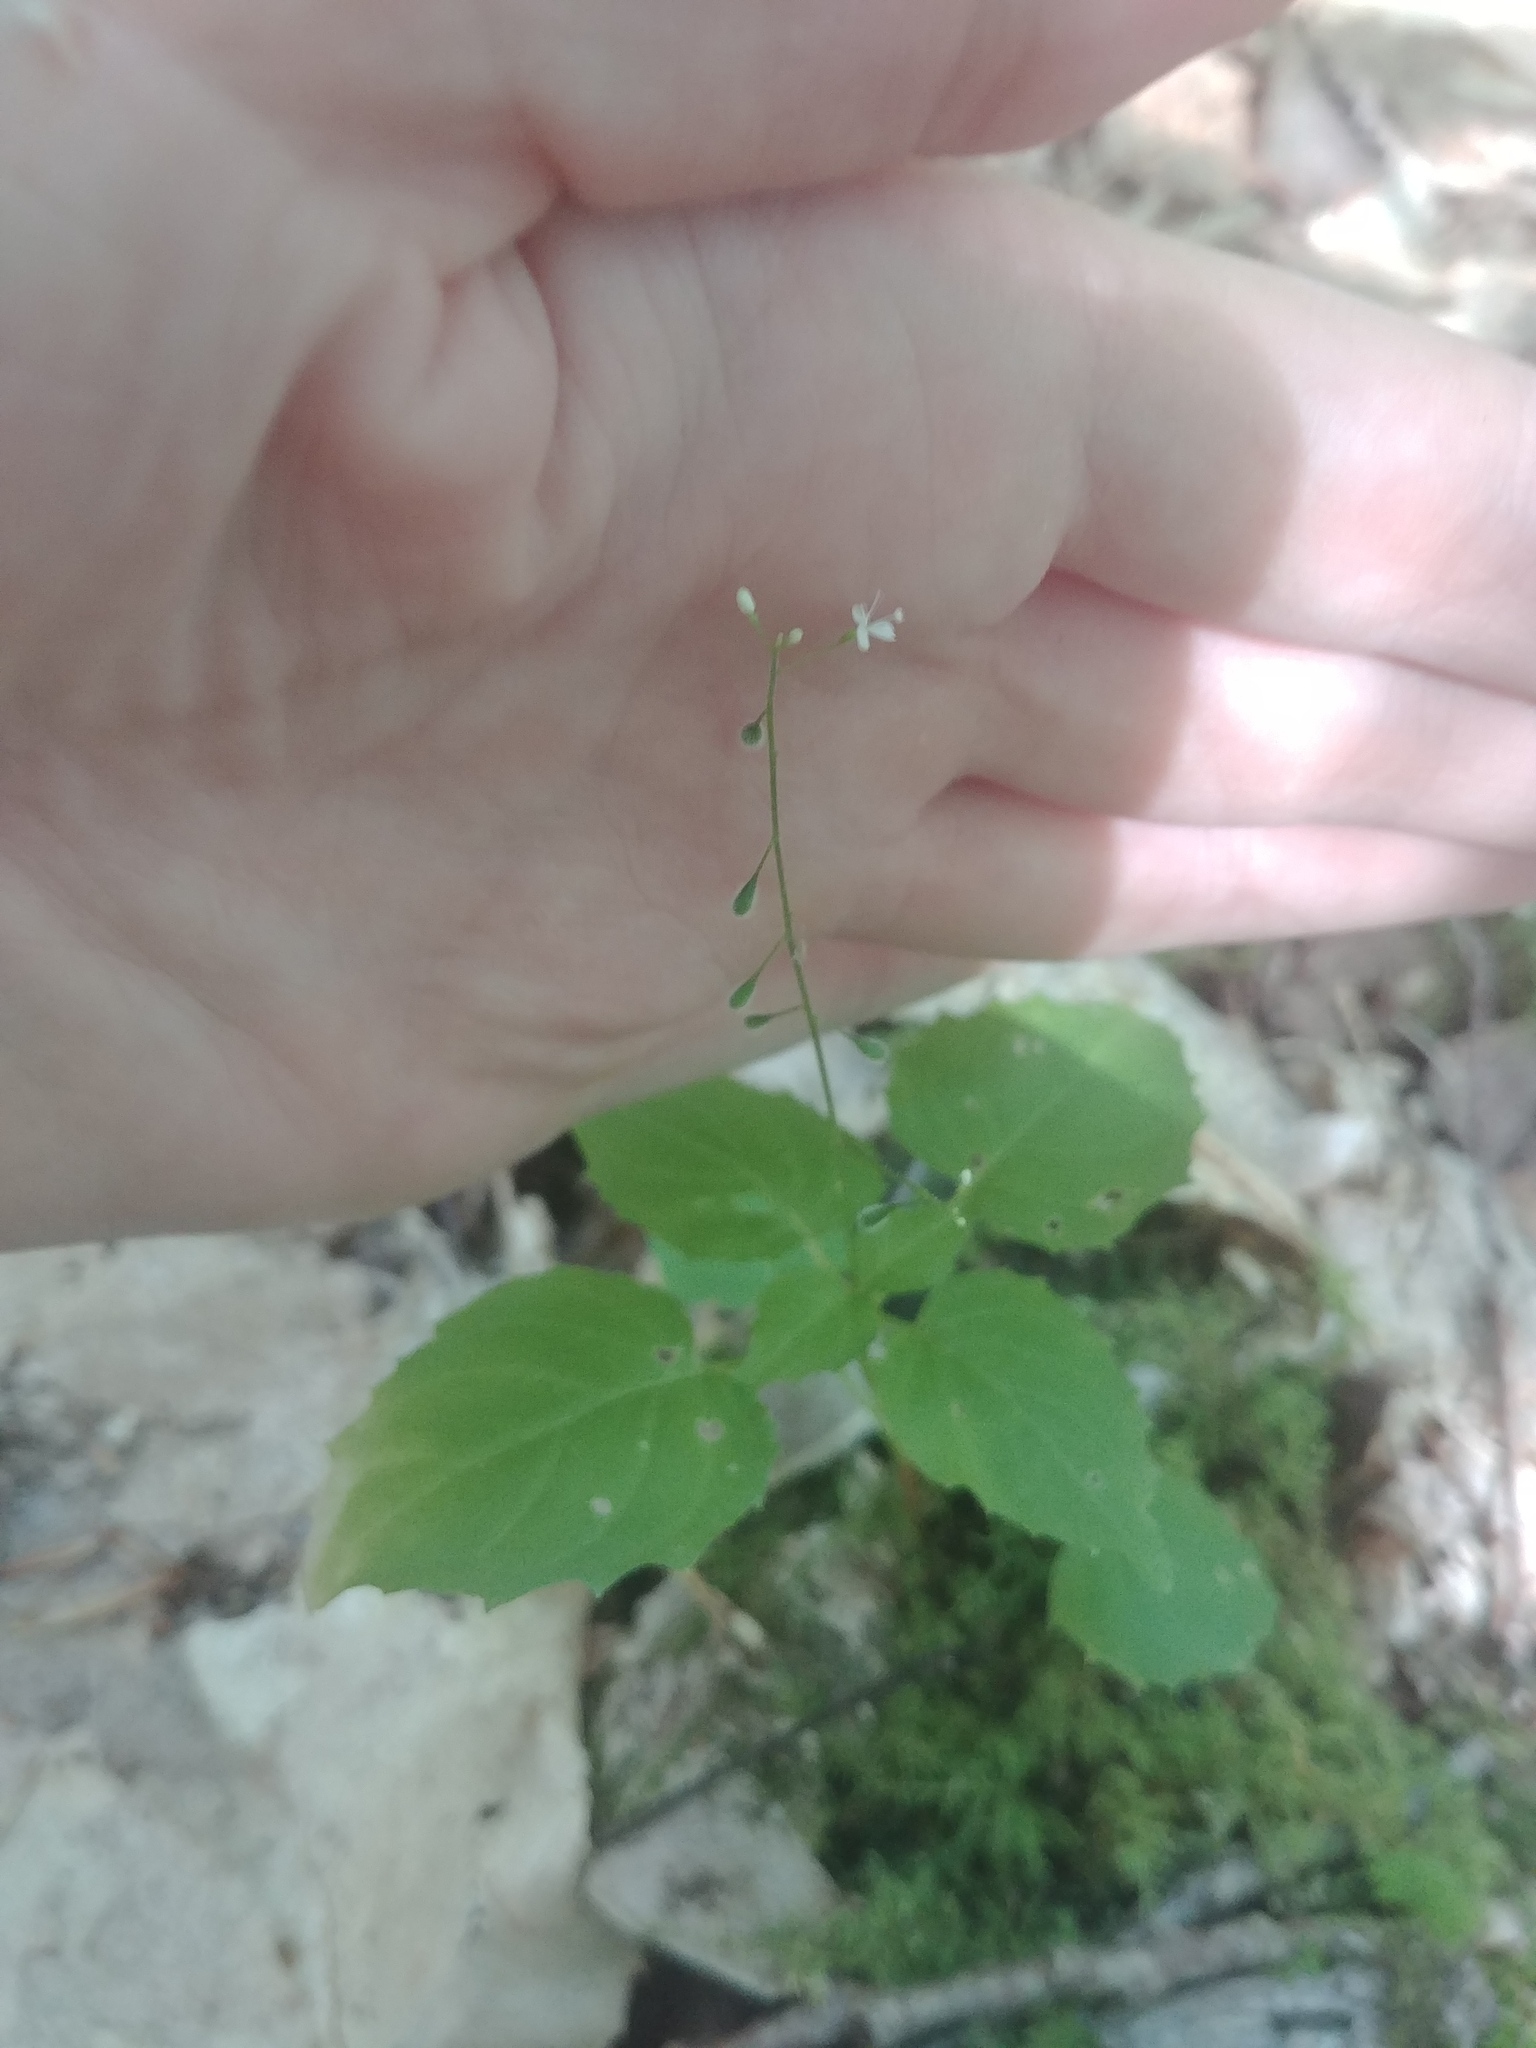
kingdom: Plantae
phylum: Tracheophyta
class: Magnoliopsida
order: Myrtales
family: Onagraceae
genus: Circaea
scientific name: Circaea alpina
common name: Alpine enchanter's-nightshade
